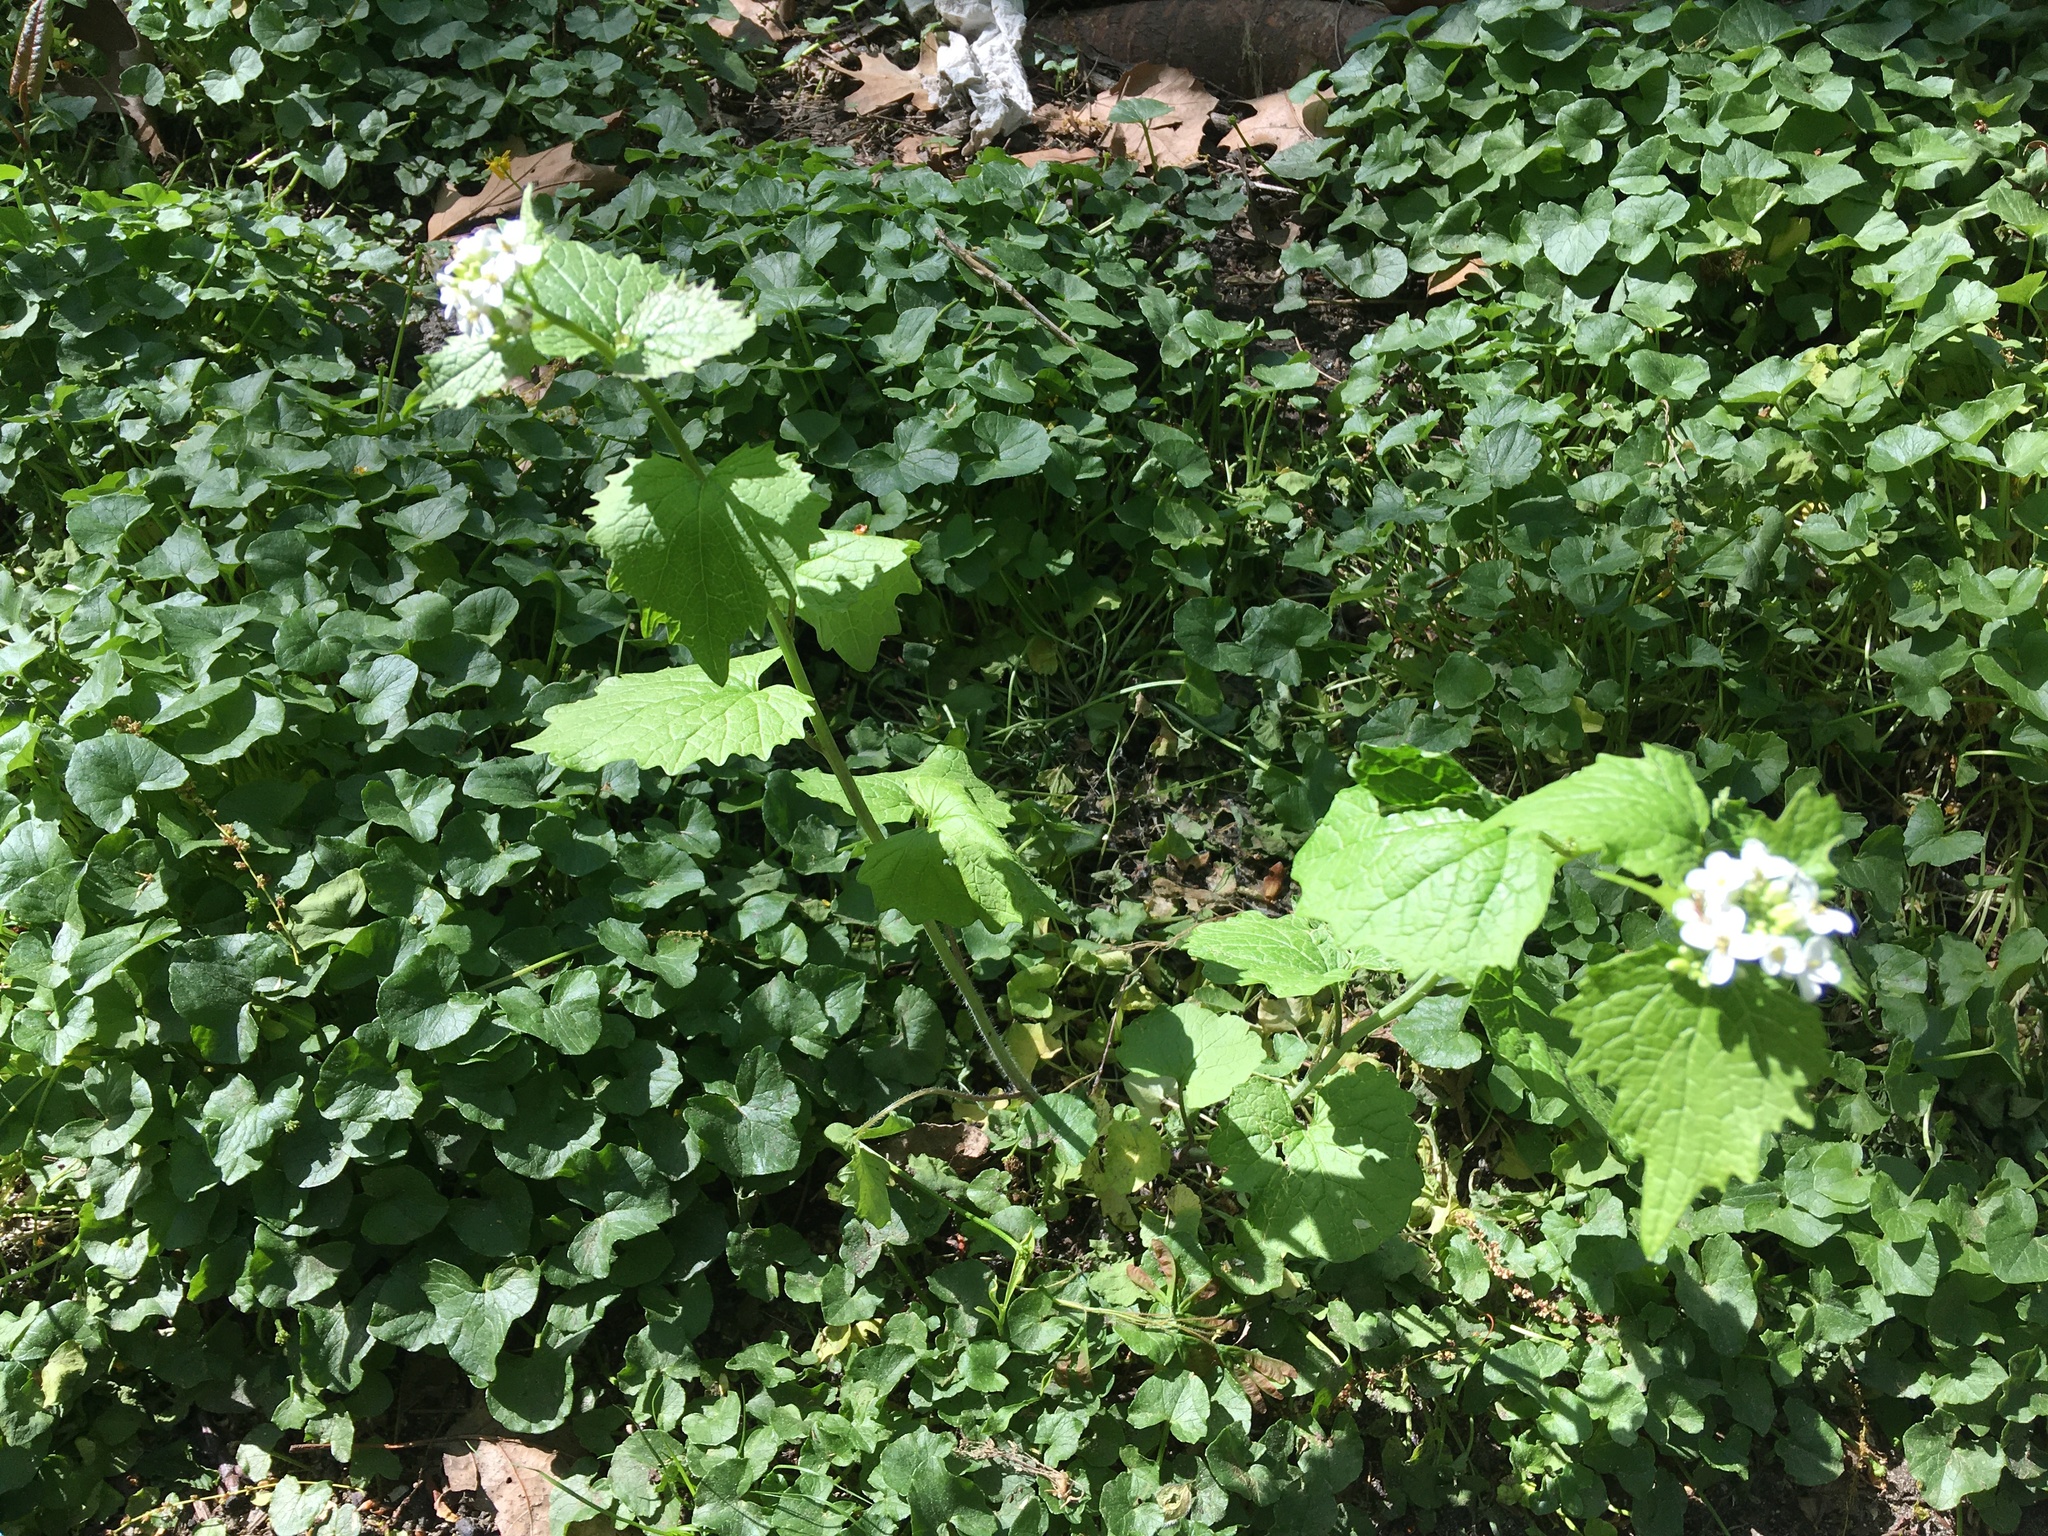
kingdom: Plantae
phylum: Tracheophyta
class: Magnoliopsida
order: Brassicales
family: Brassicaceae
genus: Alliaria
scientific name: Alliaria petiolata
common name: Garlic mustard
